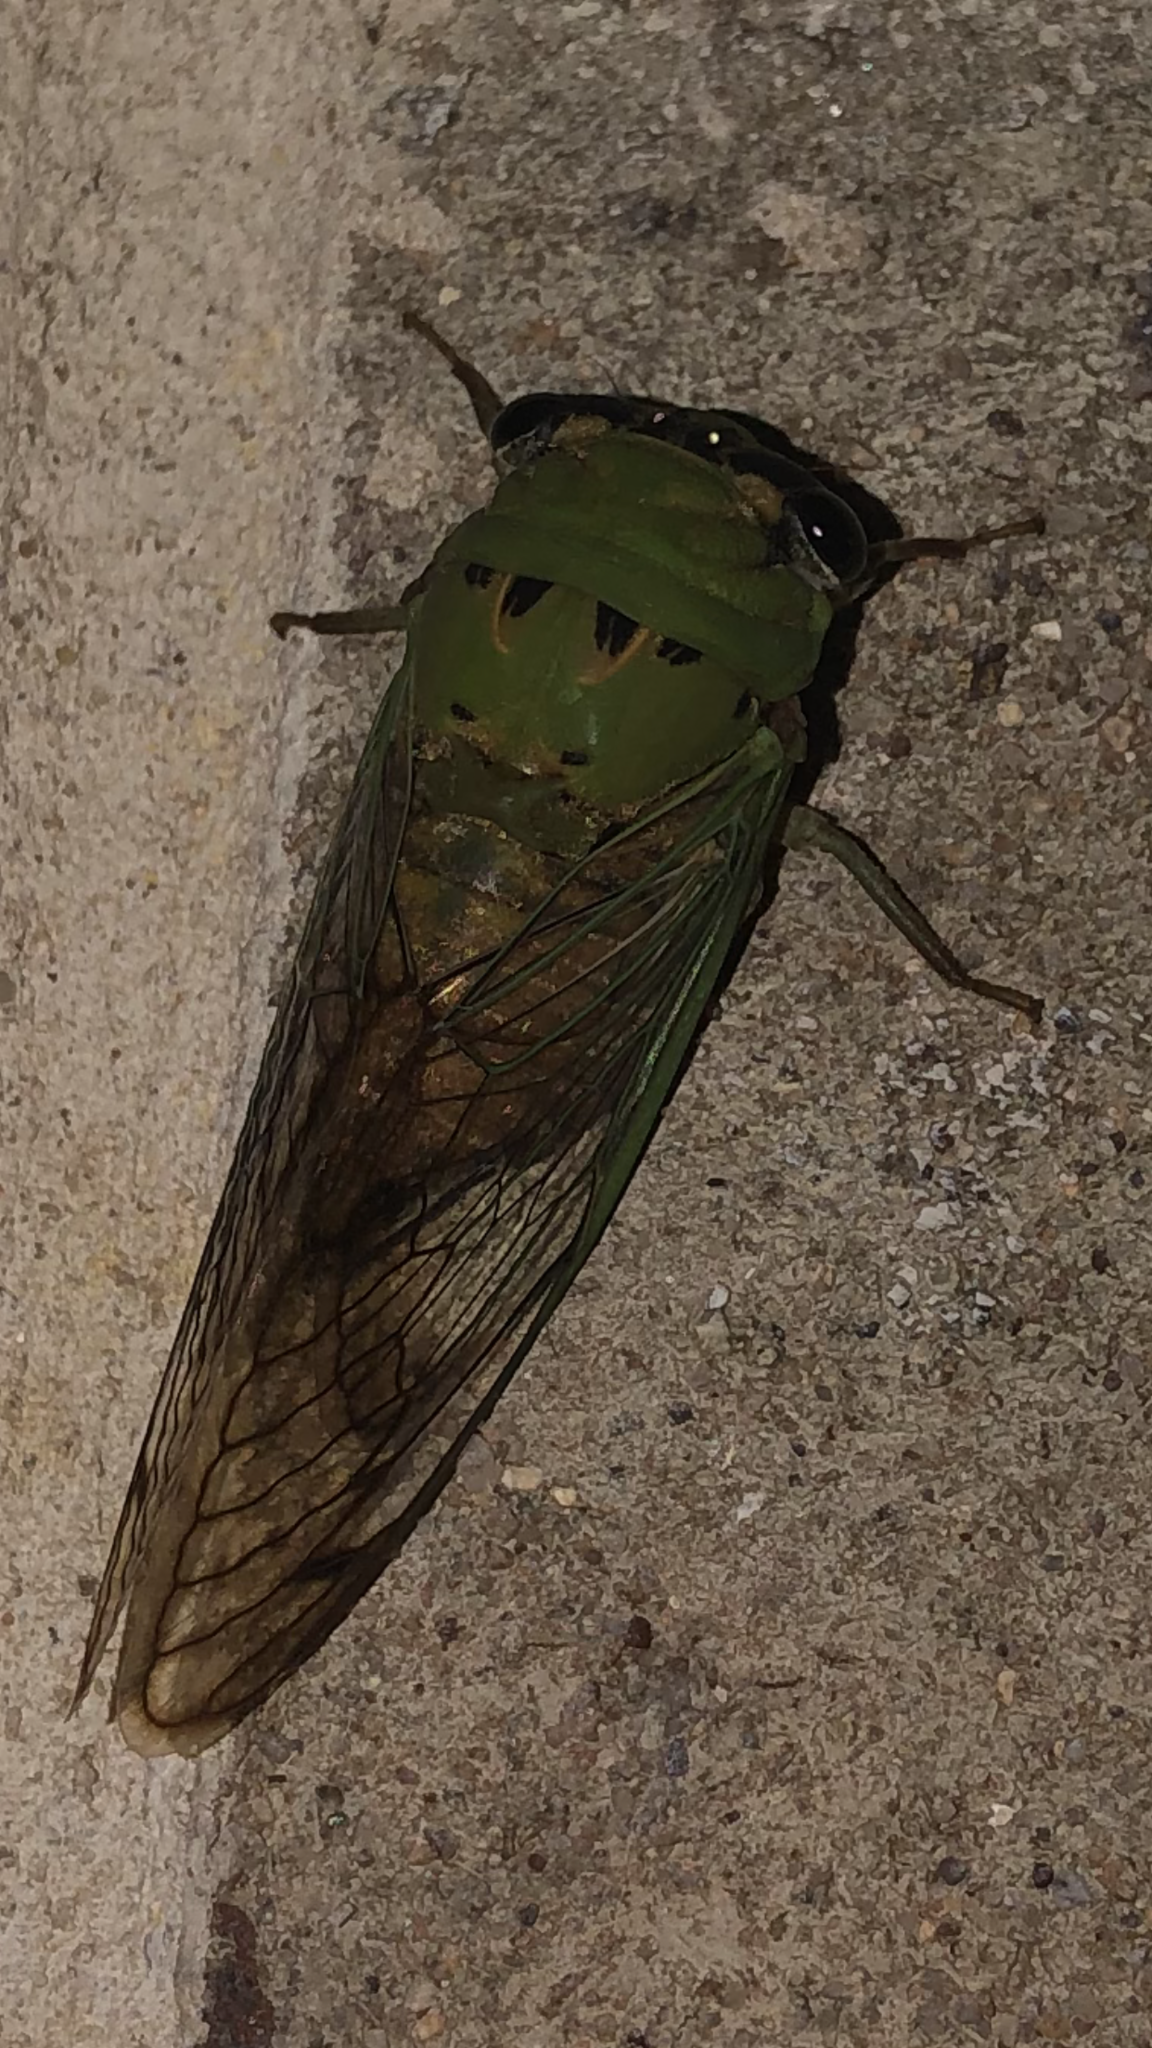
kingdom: Animalia
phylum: Arthropoda
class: Insecta
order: Hemiptera
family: Cicadidae
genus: Neotibicen
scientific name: Neotibicen superbus
